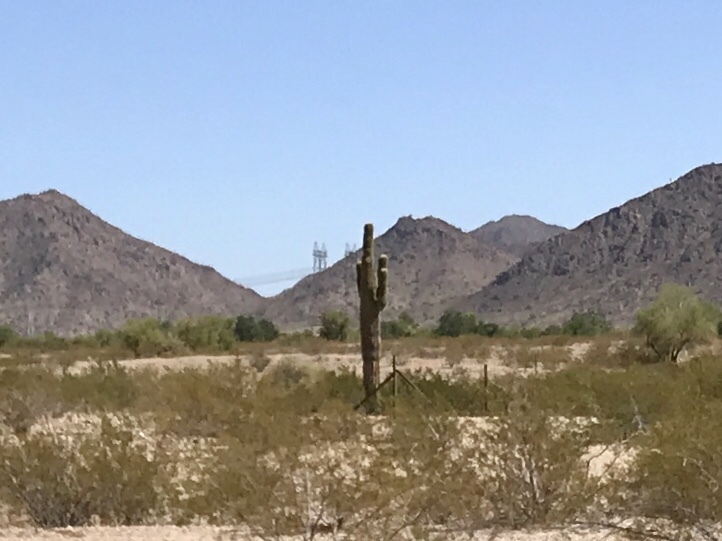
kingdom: Plantae
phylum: Tracheophyta
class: Magnoliopsida
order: Caryophyllales
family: Cactaceae
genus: Carnegiea
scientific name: Carnegiea gigantea
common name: Saguaro
